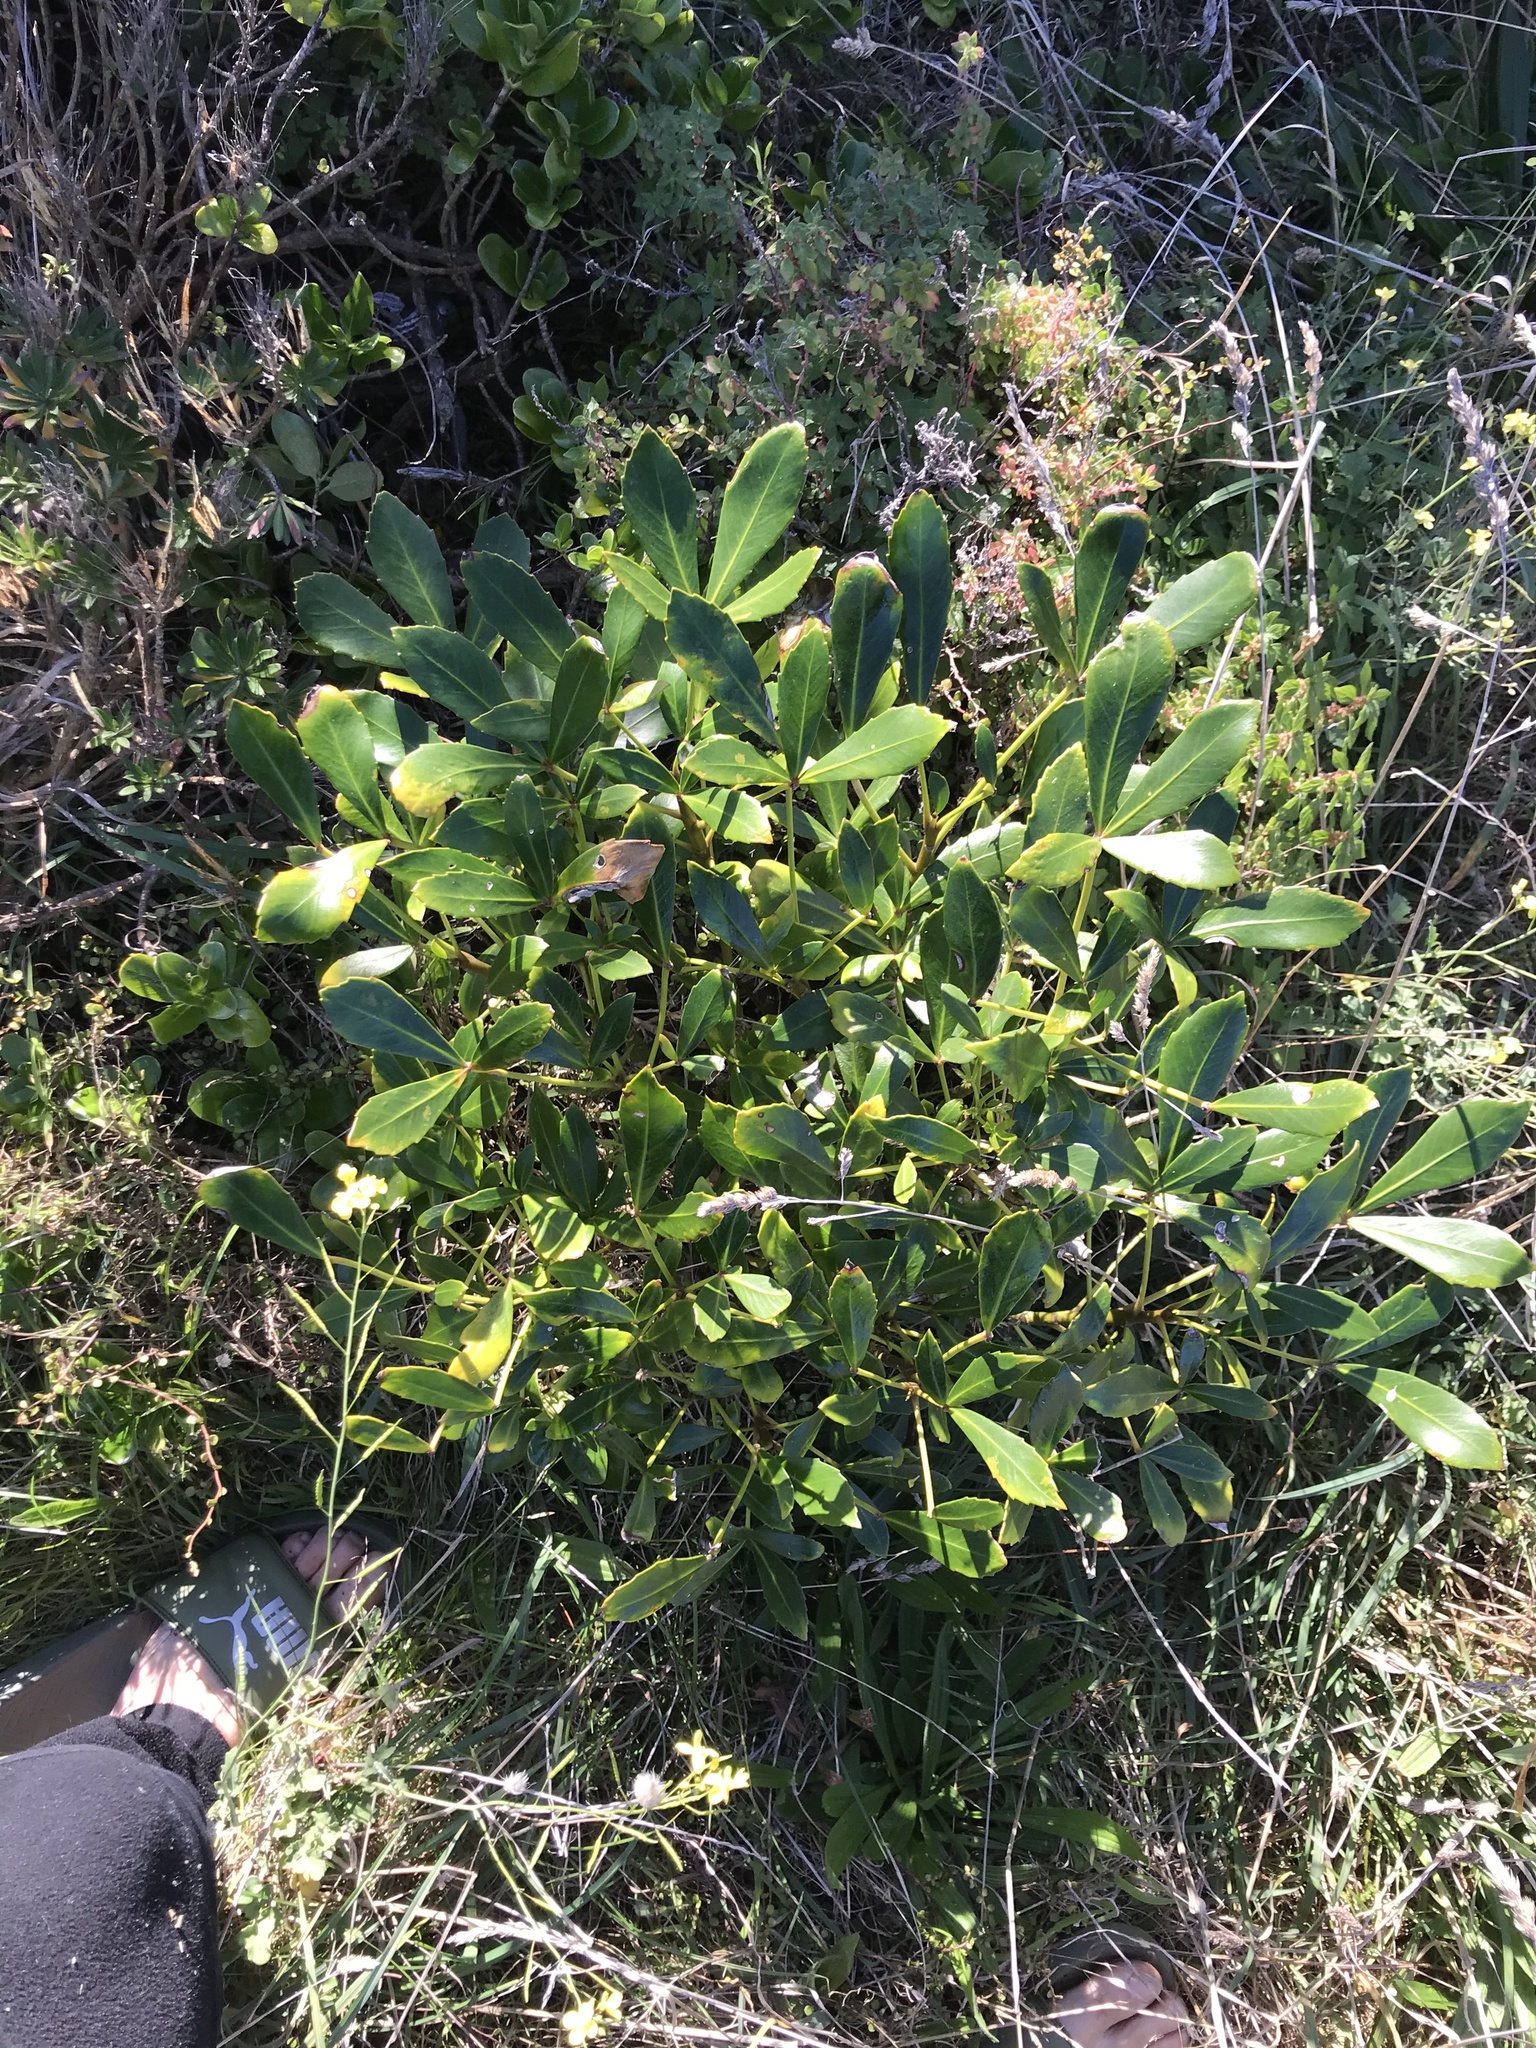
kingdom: Plantae
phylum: Tracheophyta
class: Magnoliopsida
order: Apiales
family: Araliaceae
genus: Pseudopanax
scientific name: Pseudopanax
